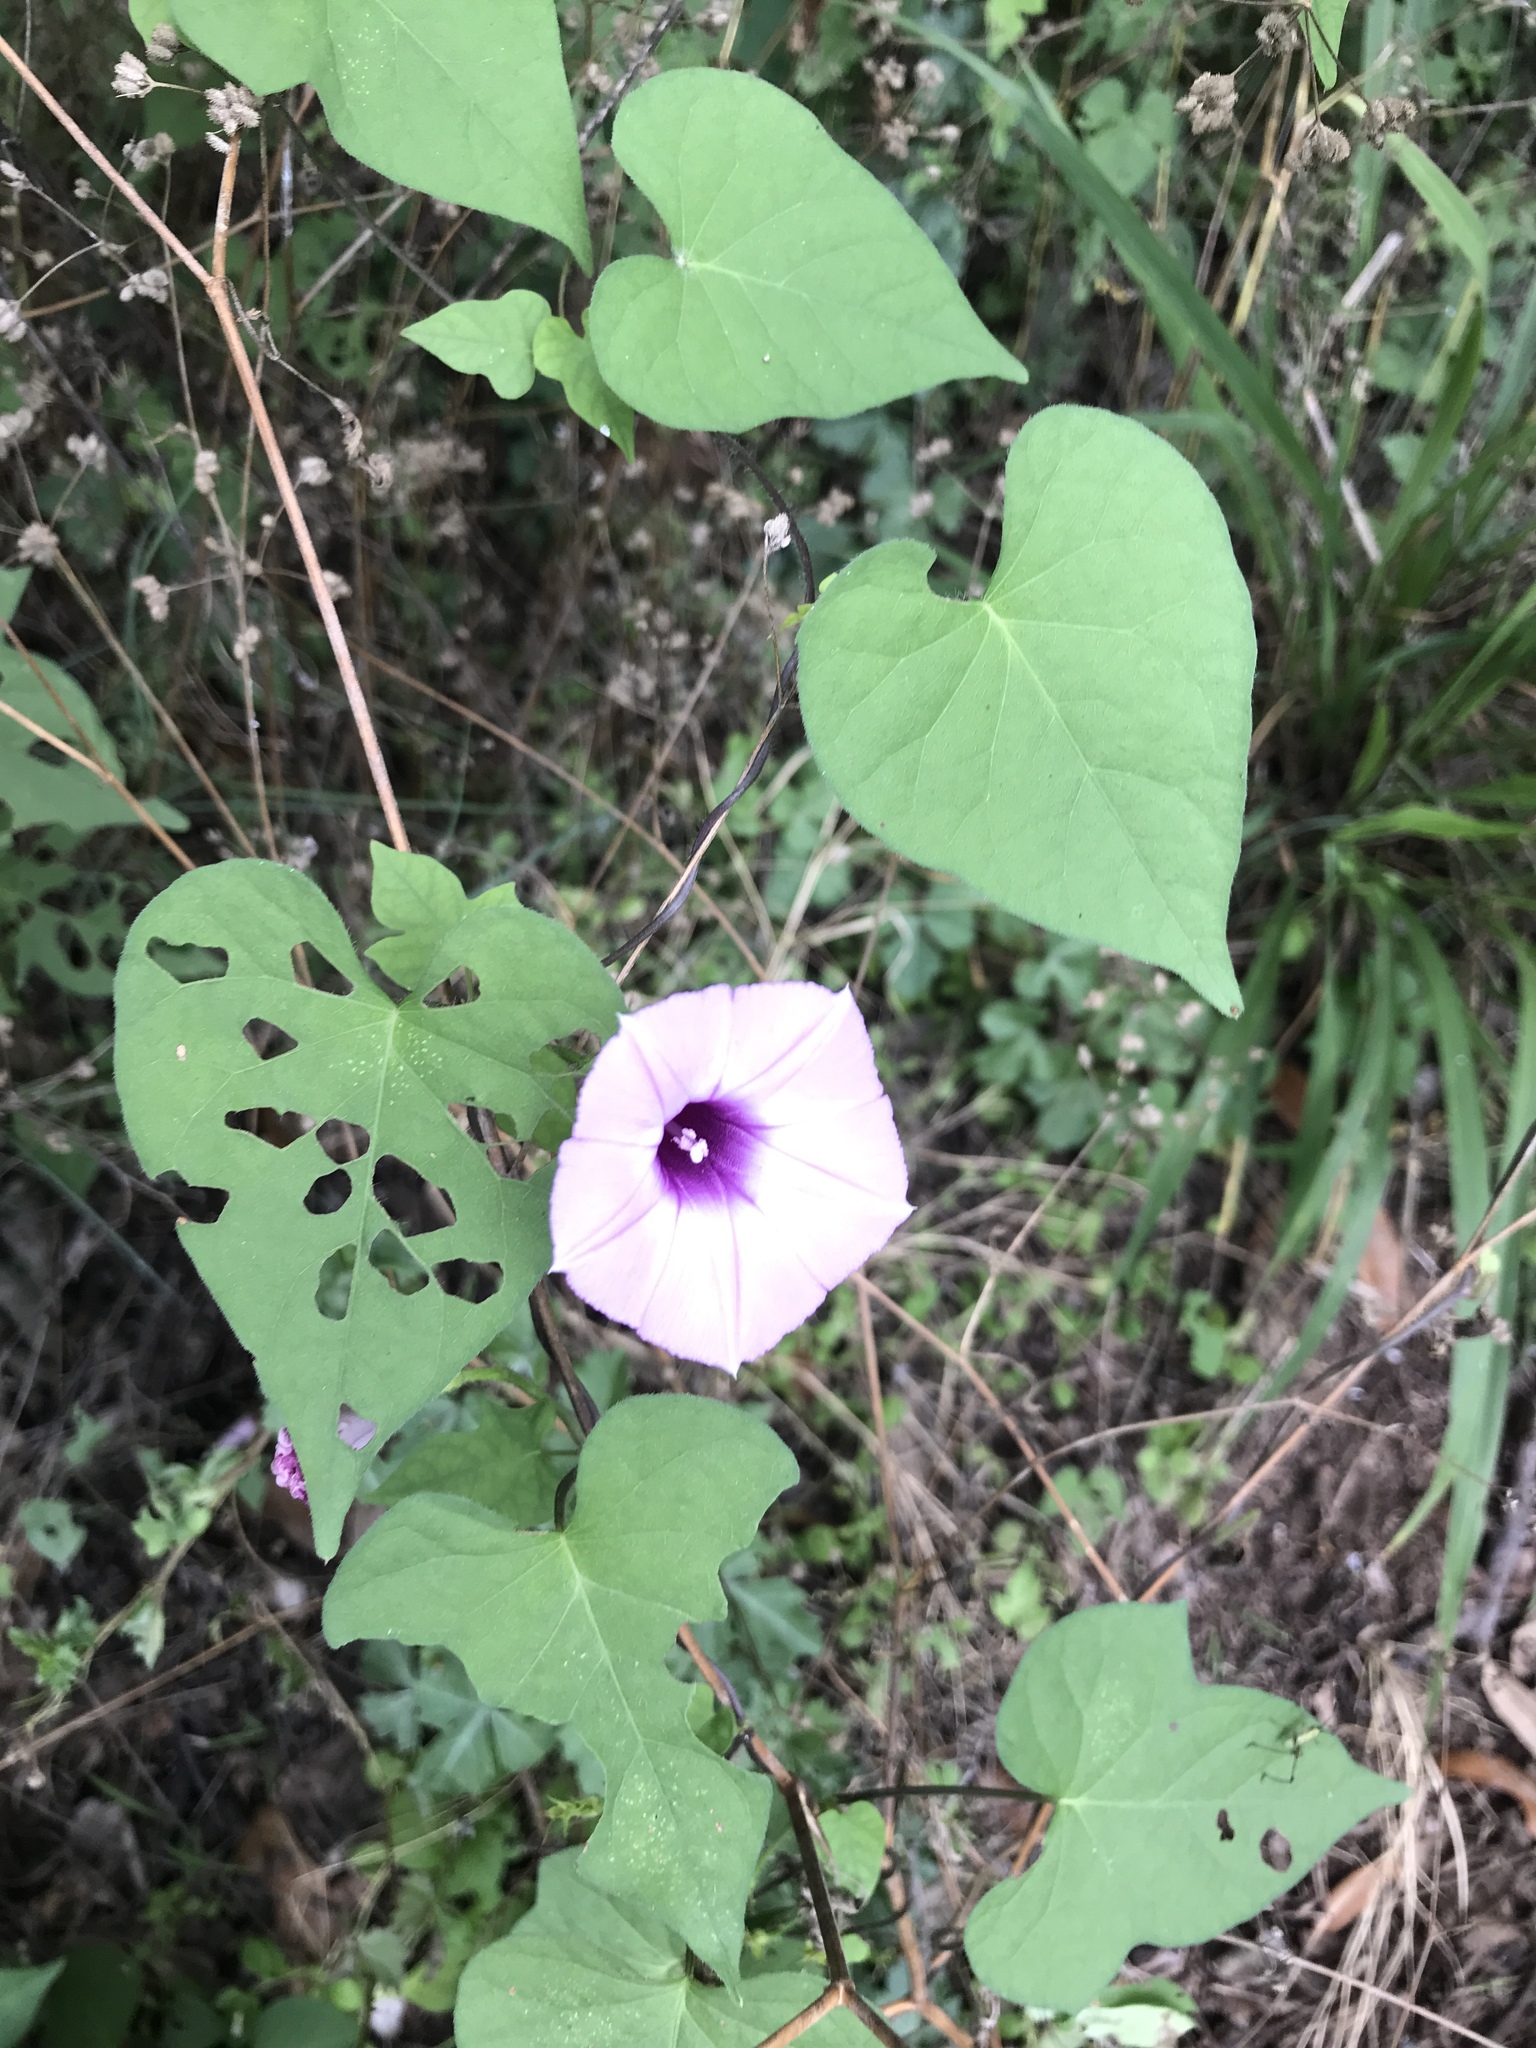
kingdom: Plantae
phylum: Tracheophyta
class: Magnoliopsida
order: Solanales
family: Convolvulaceae
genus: Ipomoea
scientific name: Ipomoea cordatotriloba
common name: Cotton morning glory
